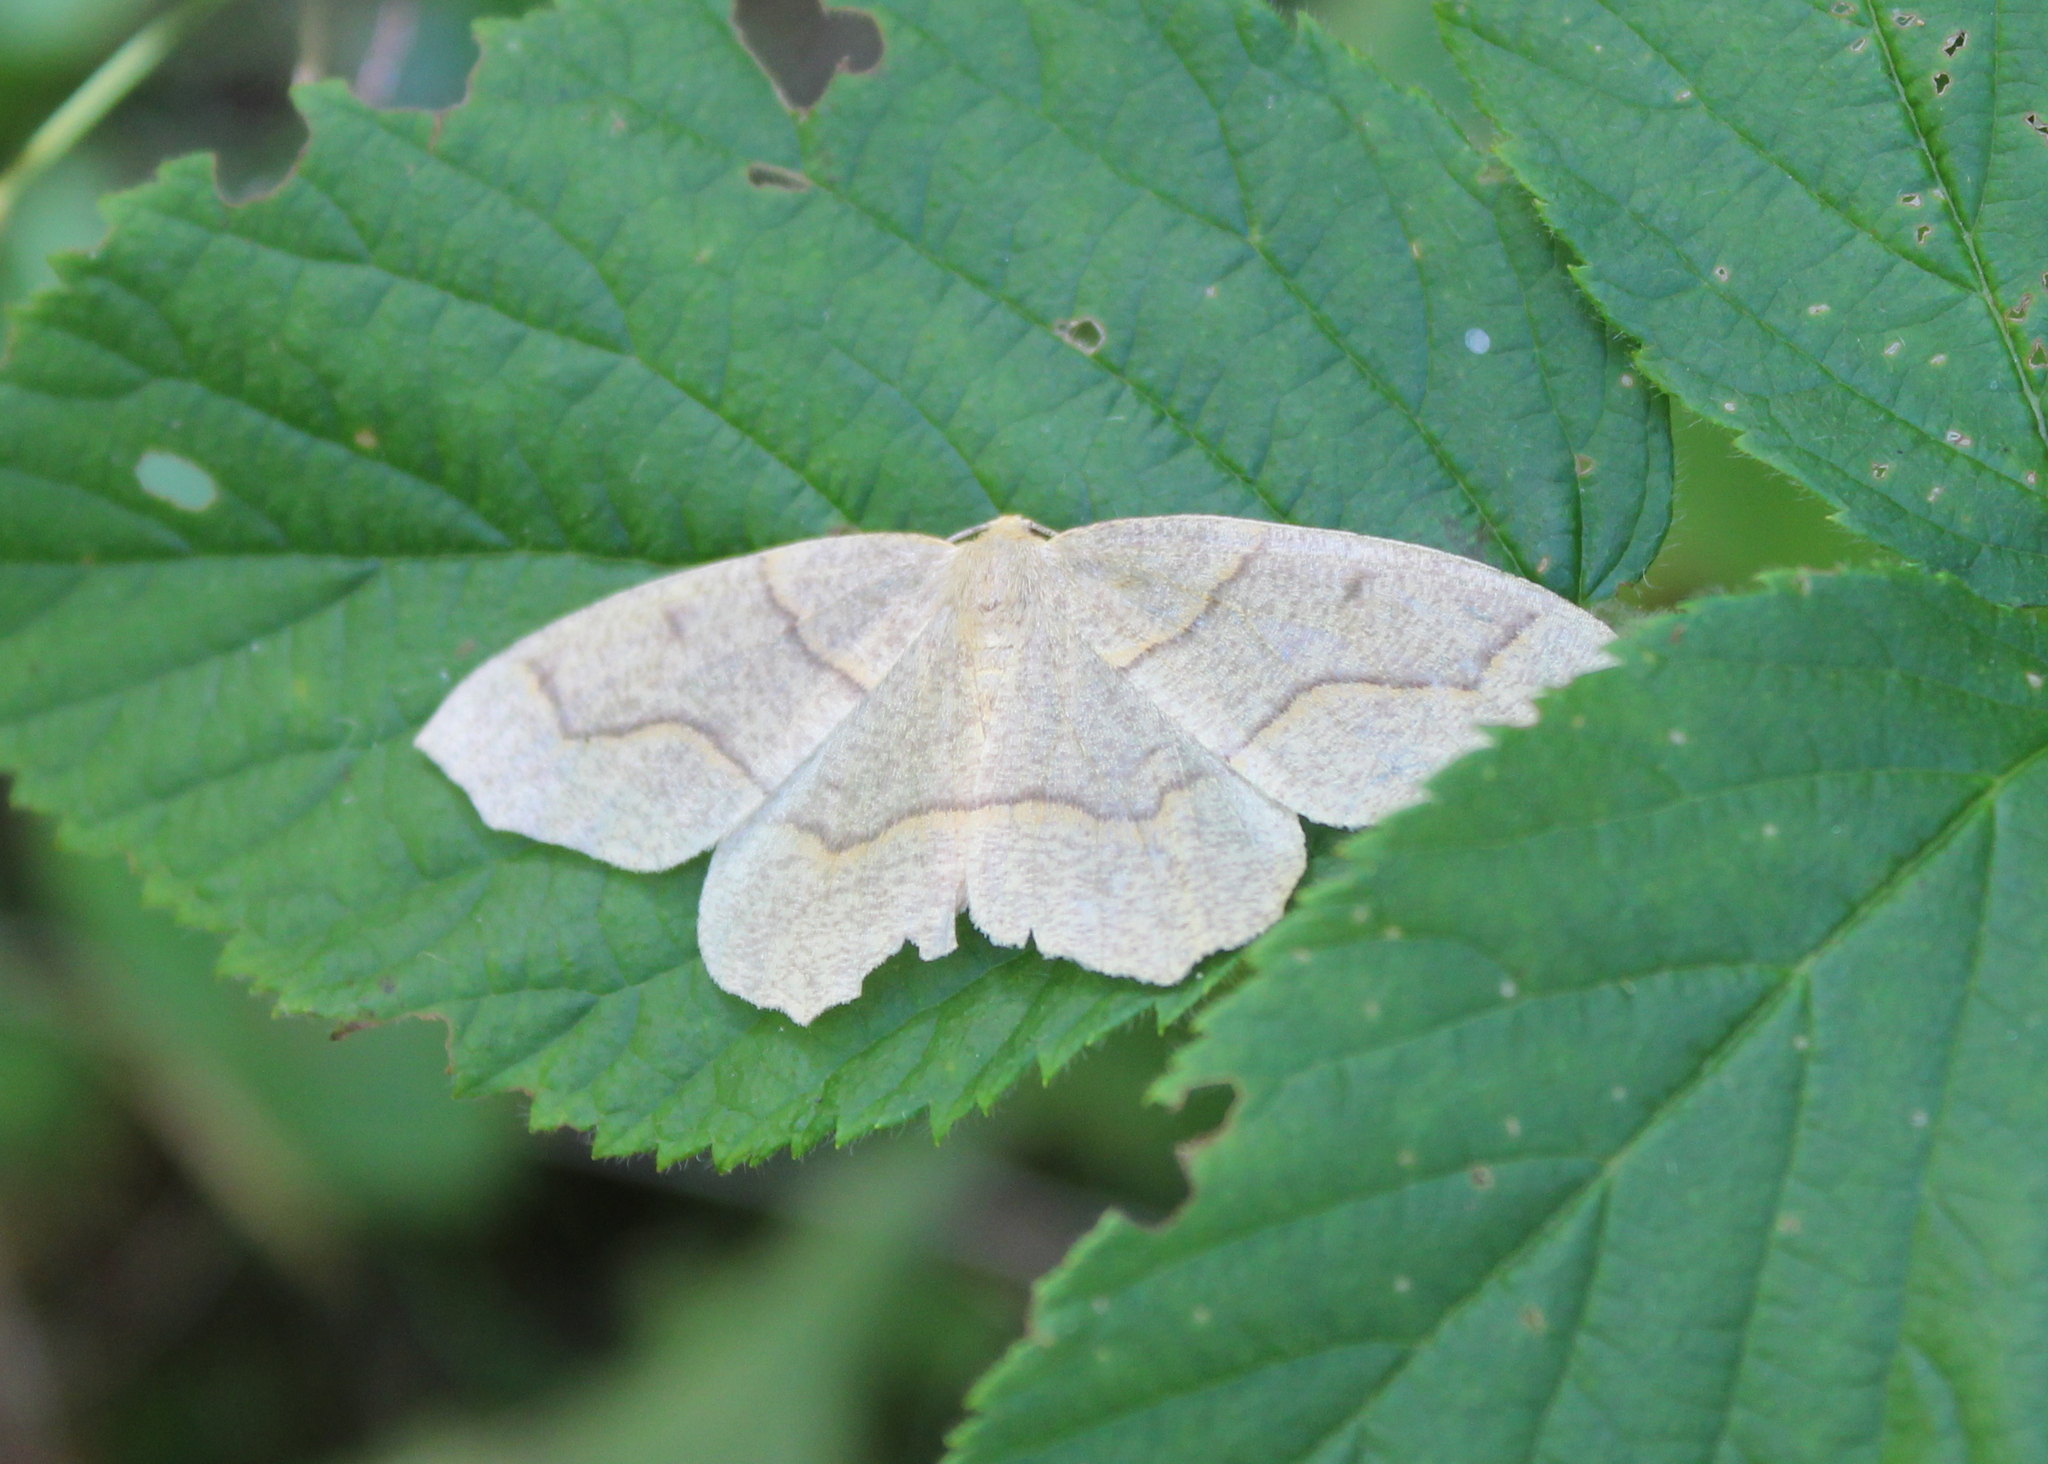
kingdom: Animalia
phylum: Arthropoda
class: Insecta
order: Lepidoptera
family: Geometridae
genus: Lambdina
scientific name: Lambdina fiscellaria
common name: Hemlock looper
